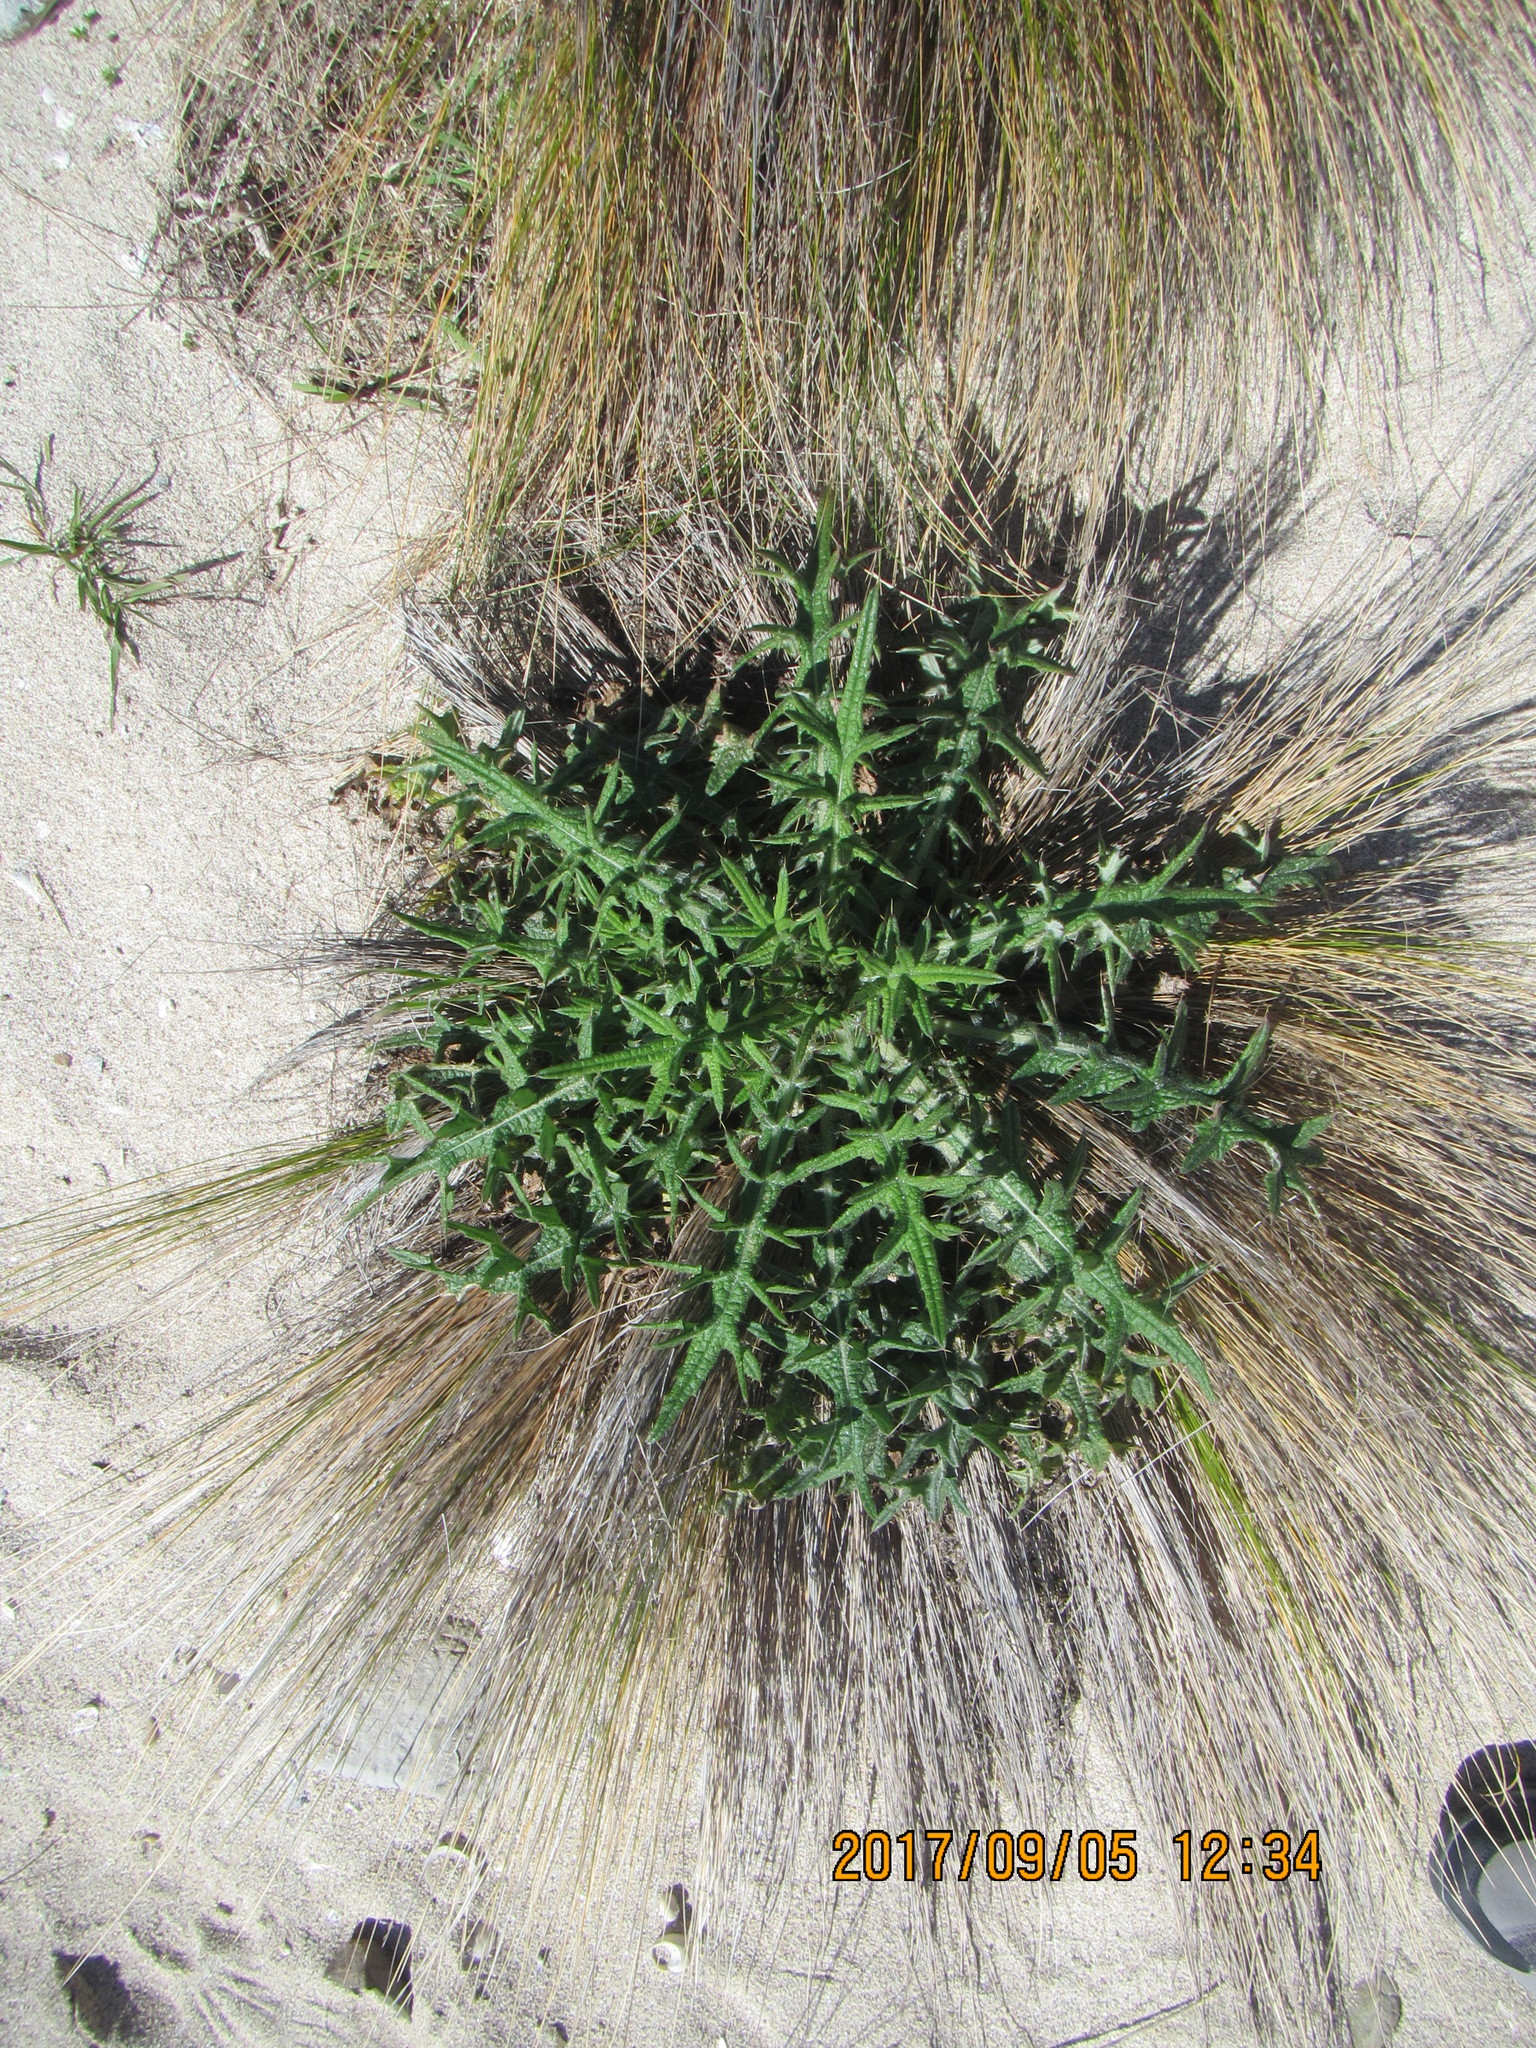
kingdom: Plantae
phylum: Tracheophyta
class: Magnoliopsida
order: Asterales
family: Asteraceae
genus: Cirsium
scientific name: Cirsium vulgare
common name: Bull thistle
